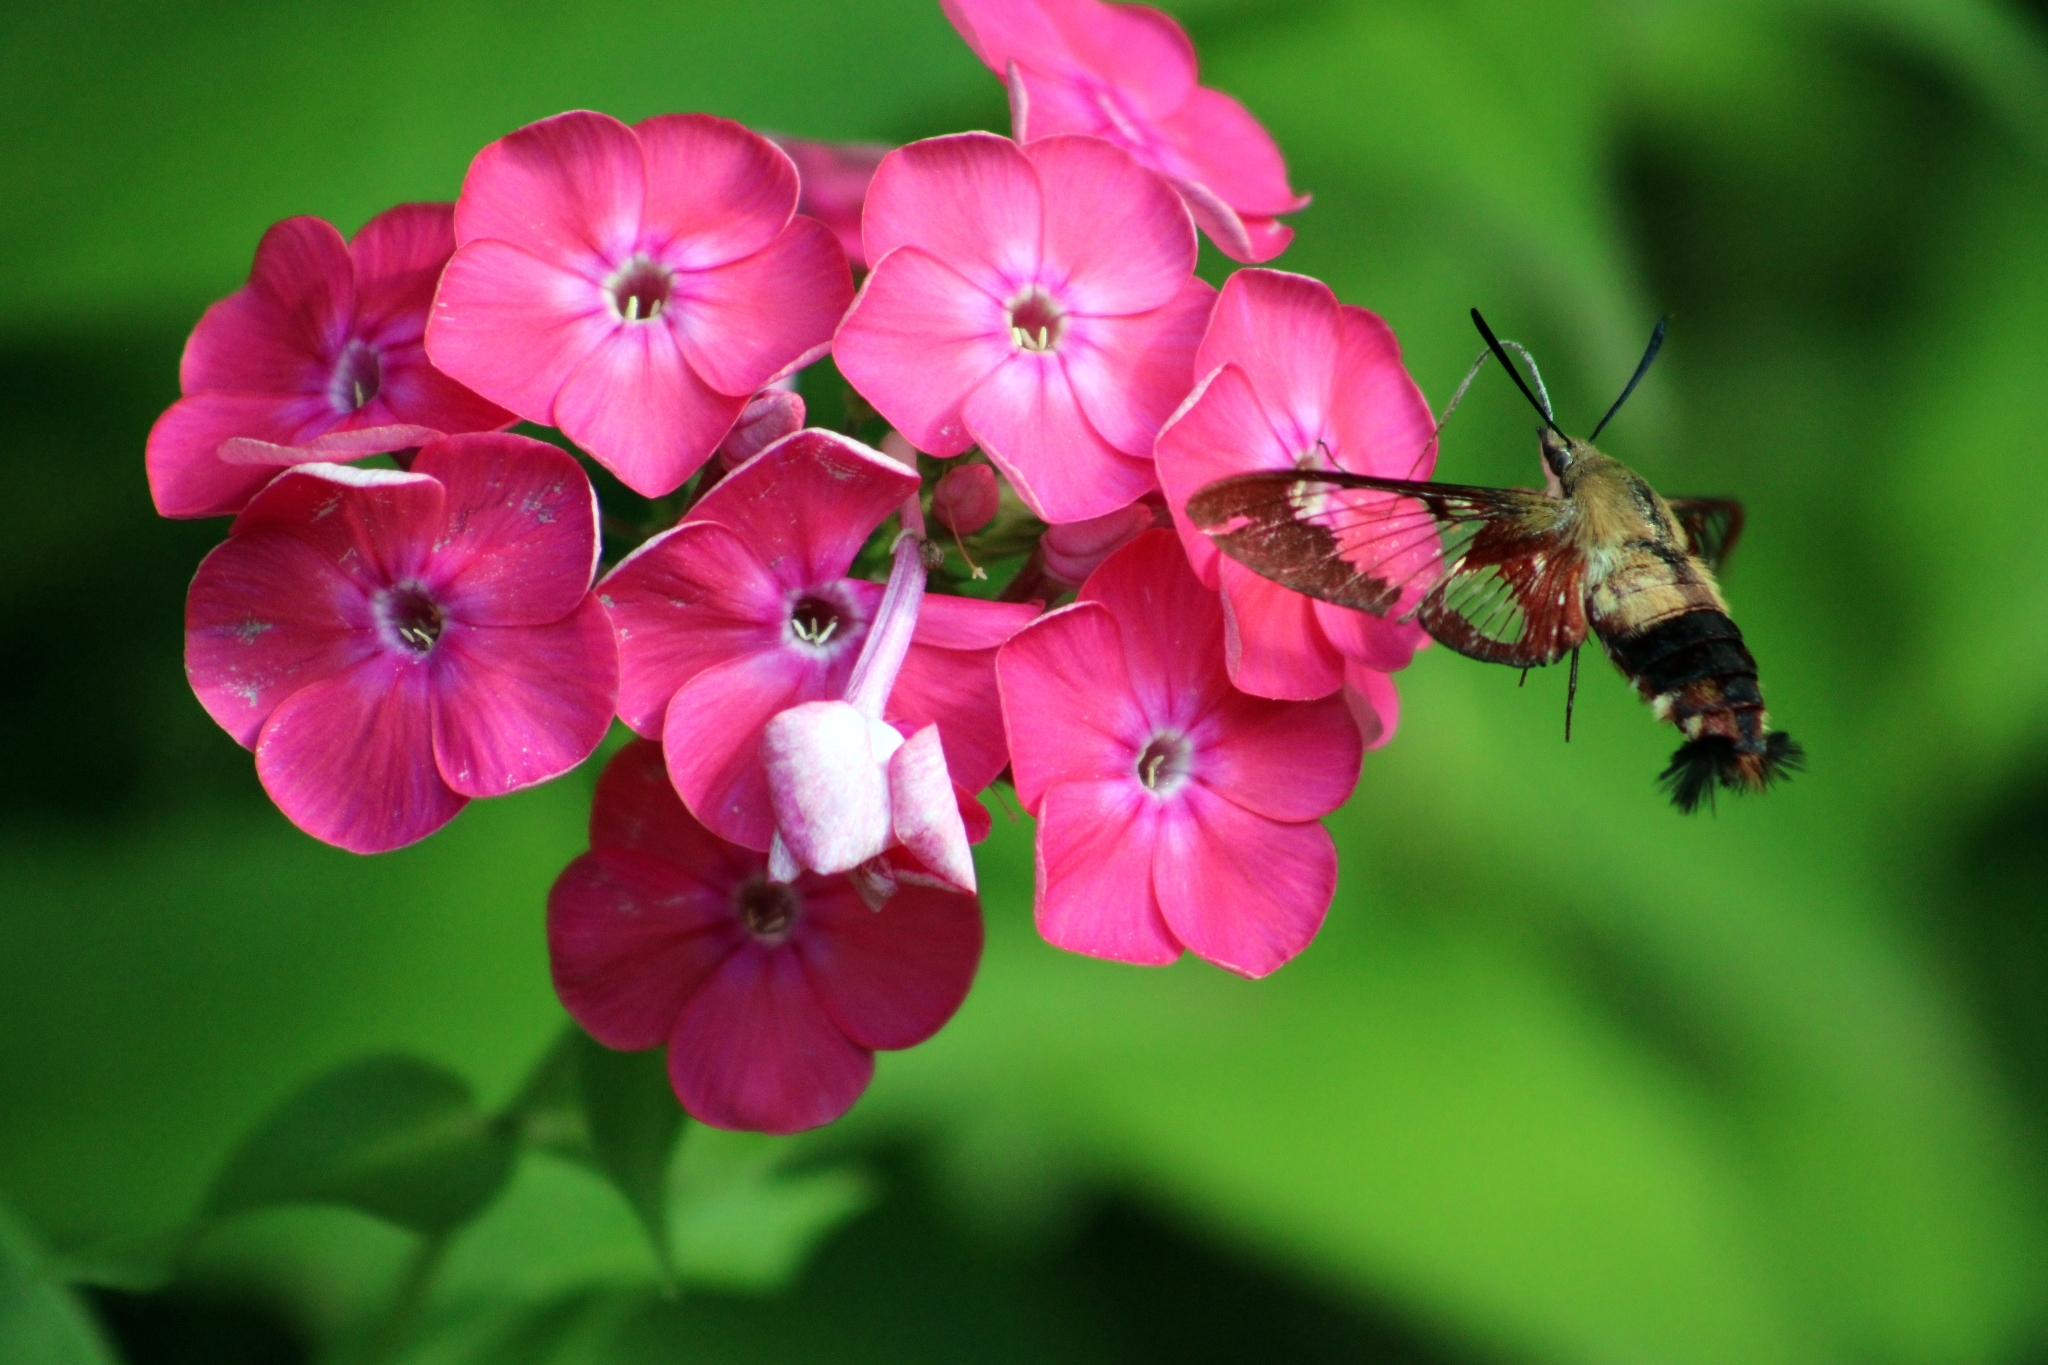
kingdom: Animalia
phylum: Arthropoda
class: Insecta
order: Lepidoptera
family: Sphingidae
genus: Hemaris
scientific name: Hemaris thysbe
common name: Common clear-wing
